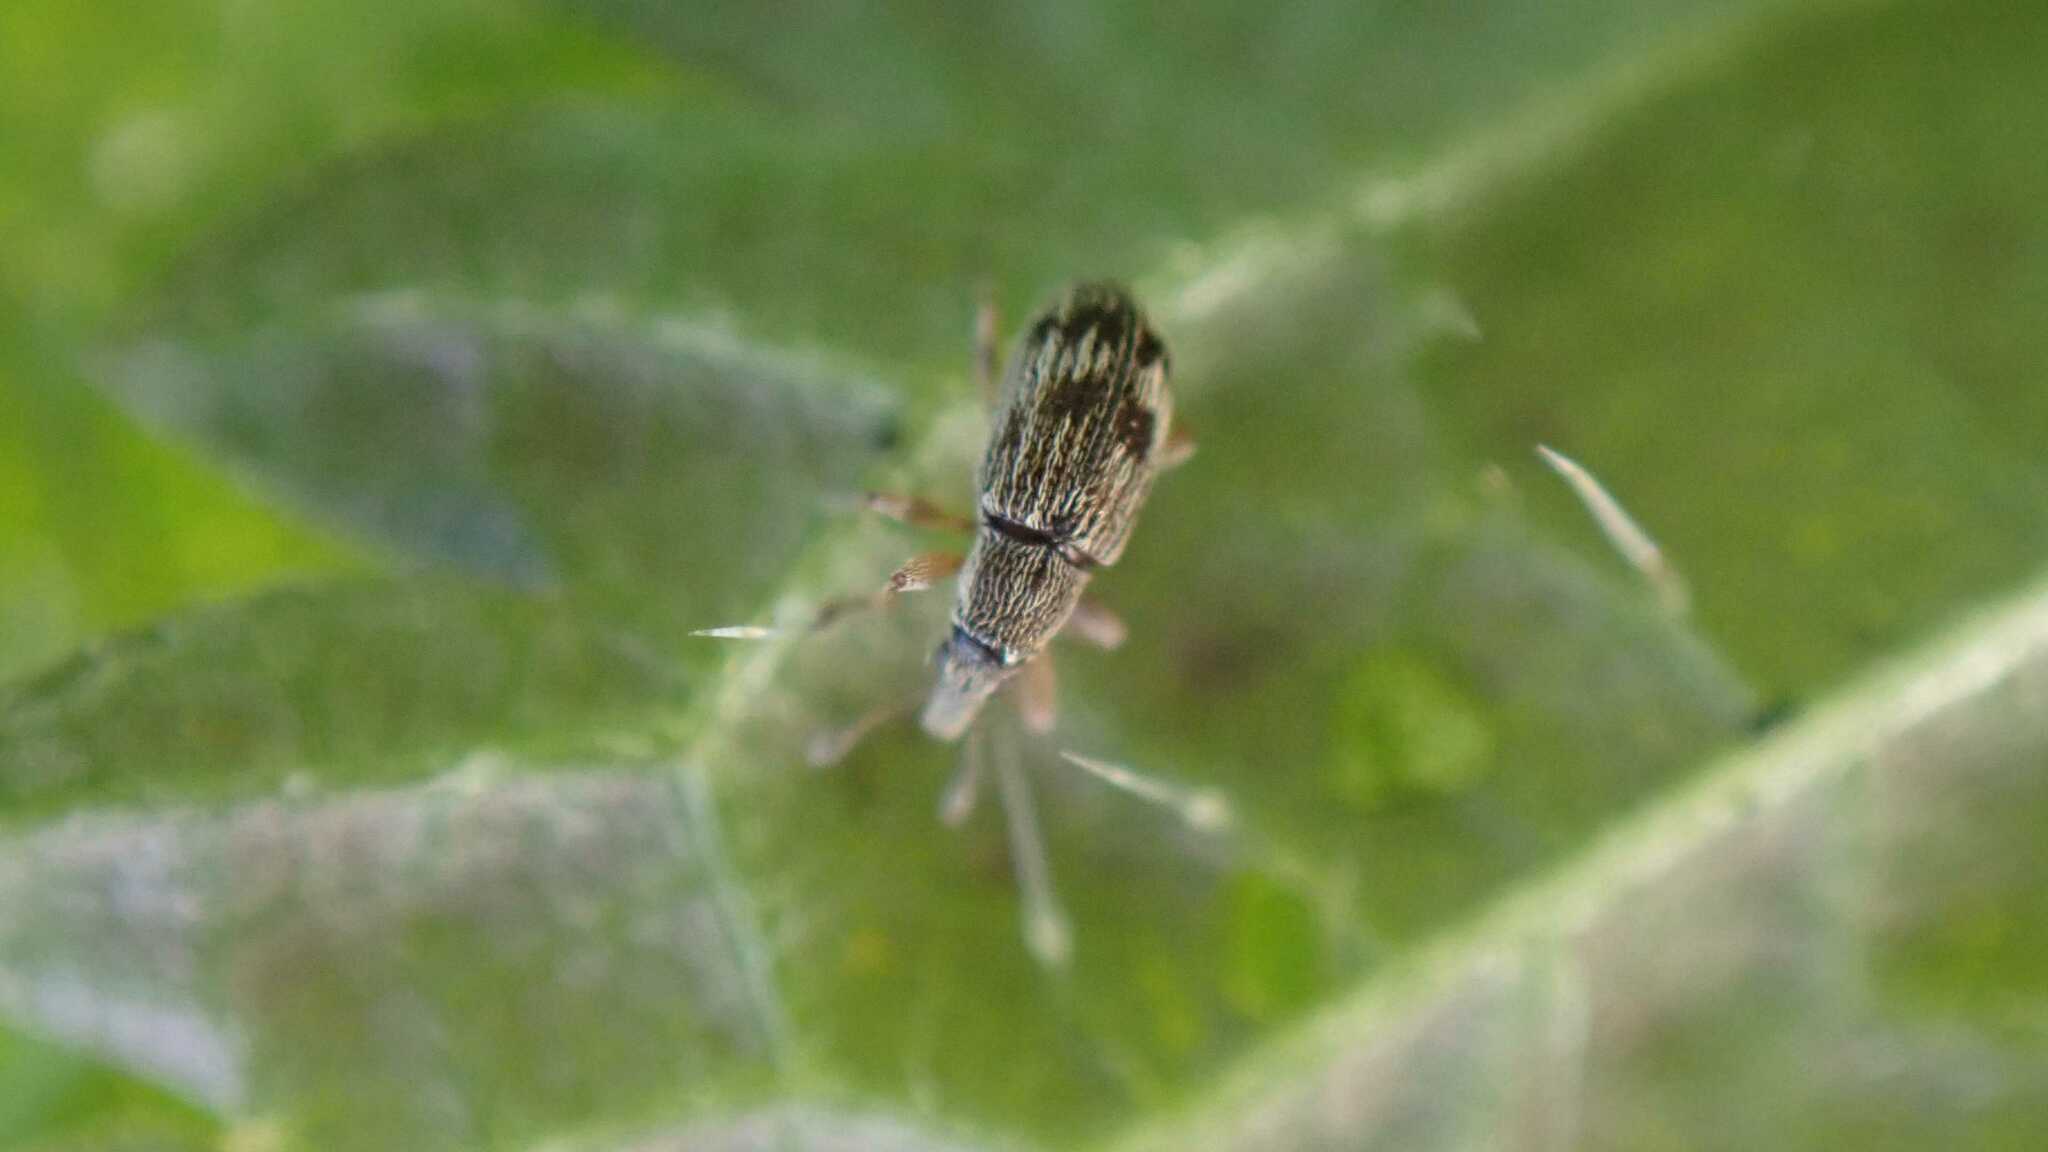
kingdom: Animalia
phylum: Arthropoda
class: Insecta
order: Coleoptera
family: Apionidae
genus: Taeniapion
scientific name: Taeniapion urticarium
